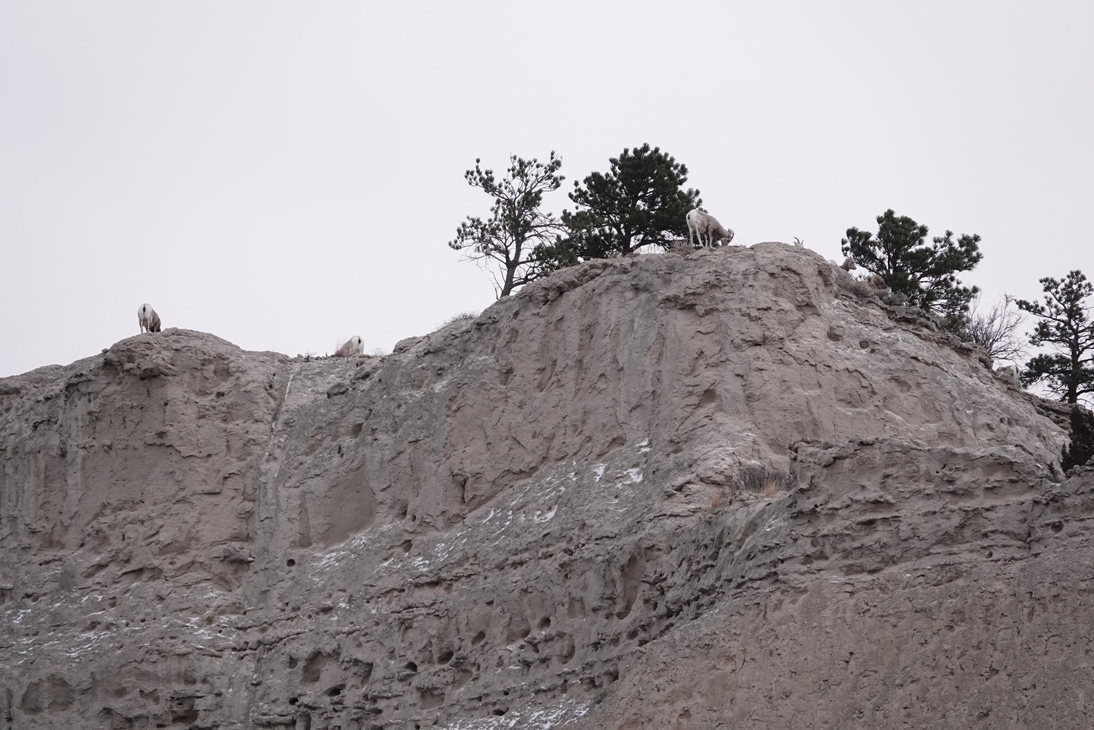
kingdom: Animalia
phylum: Chordata
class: Mammalia
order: Artiodactyla
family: Bovidae
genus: Ovis
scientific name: Ovis canadensis
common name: Bighorn sheep
